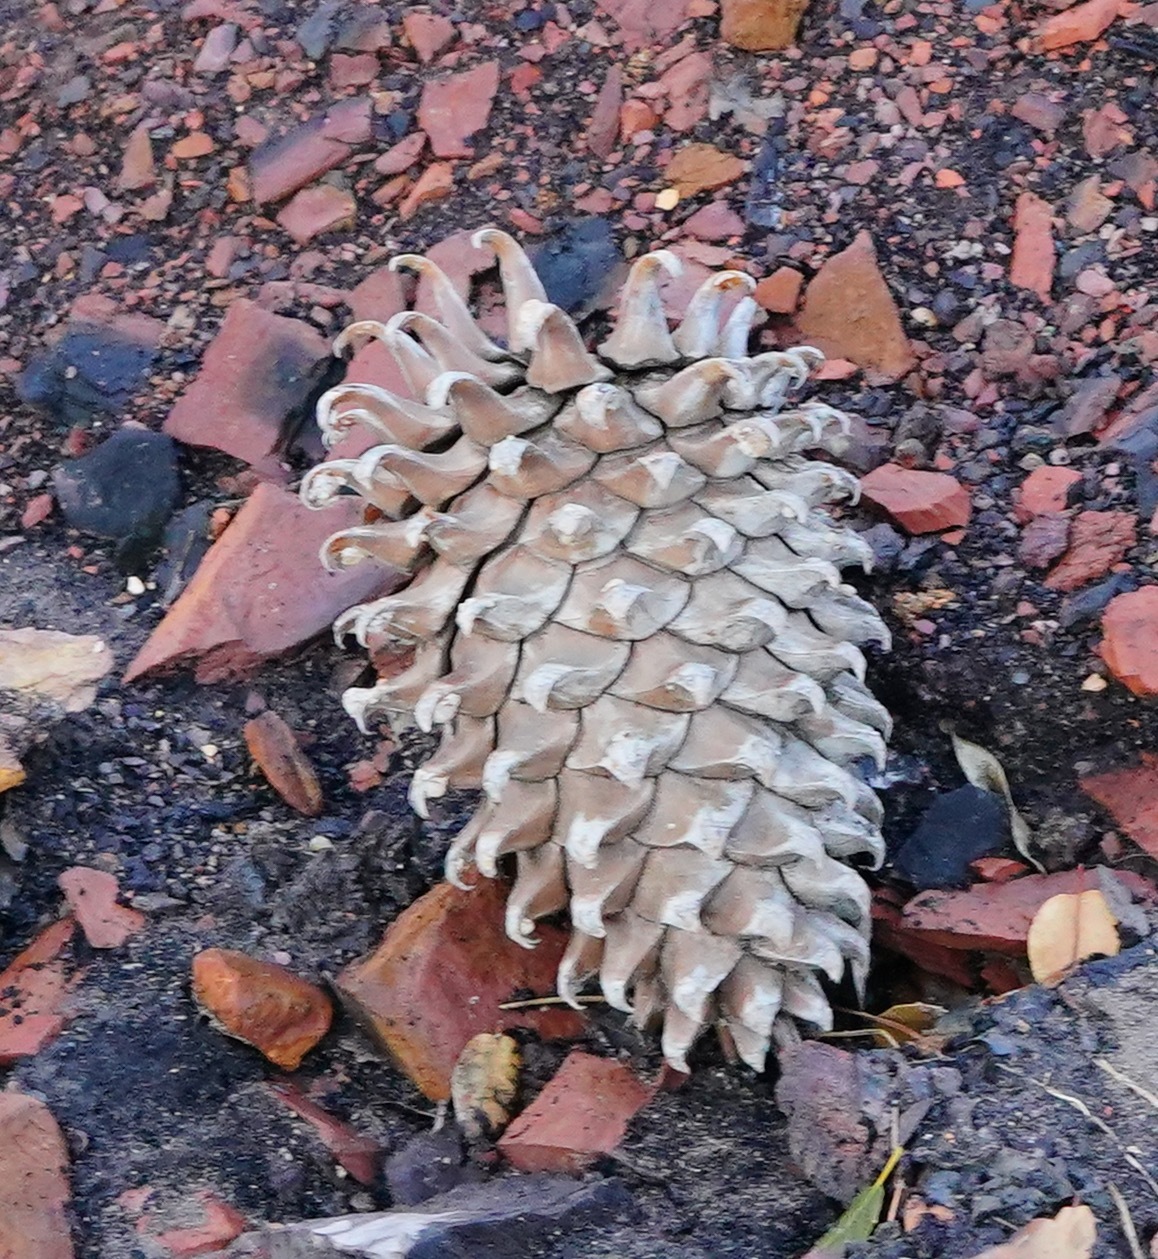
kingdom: Plantae
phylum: Tracheophyta
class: Pinopsida
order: Pinales
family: Pinaceae
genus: Pinus
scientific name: Pinus coulteri
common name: Coulter pine
